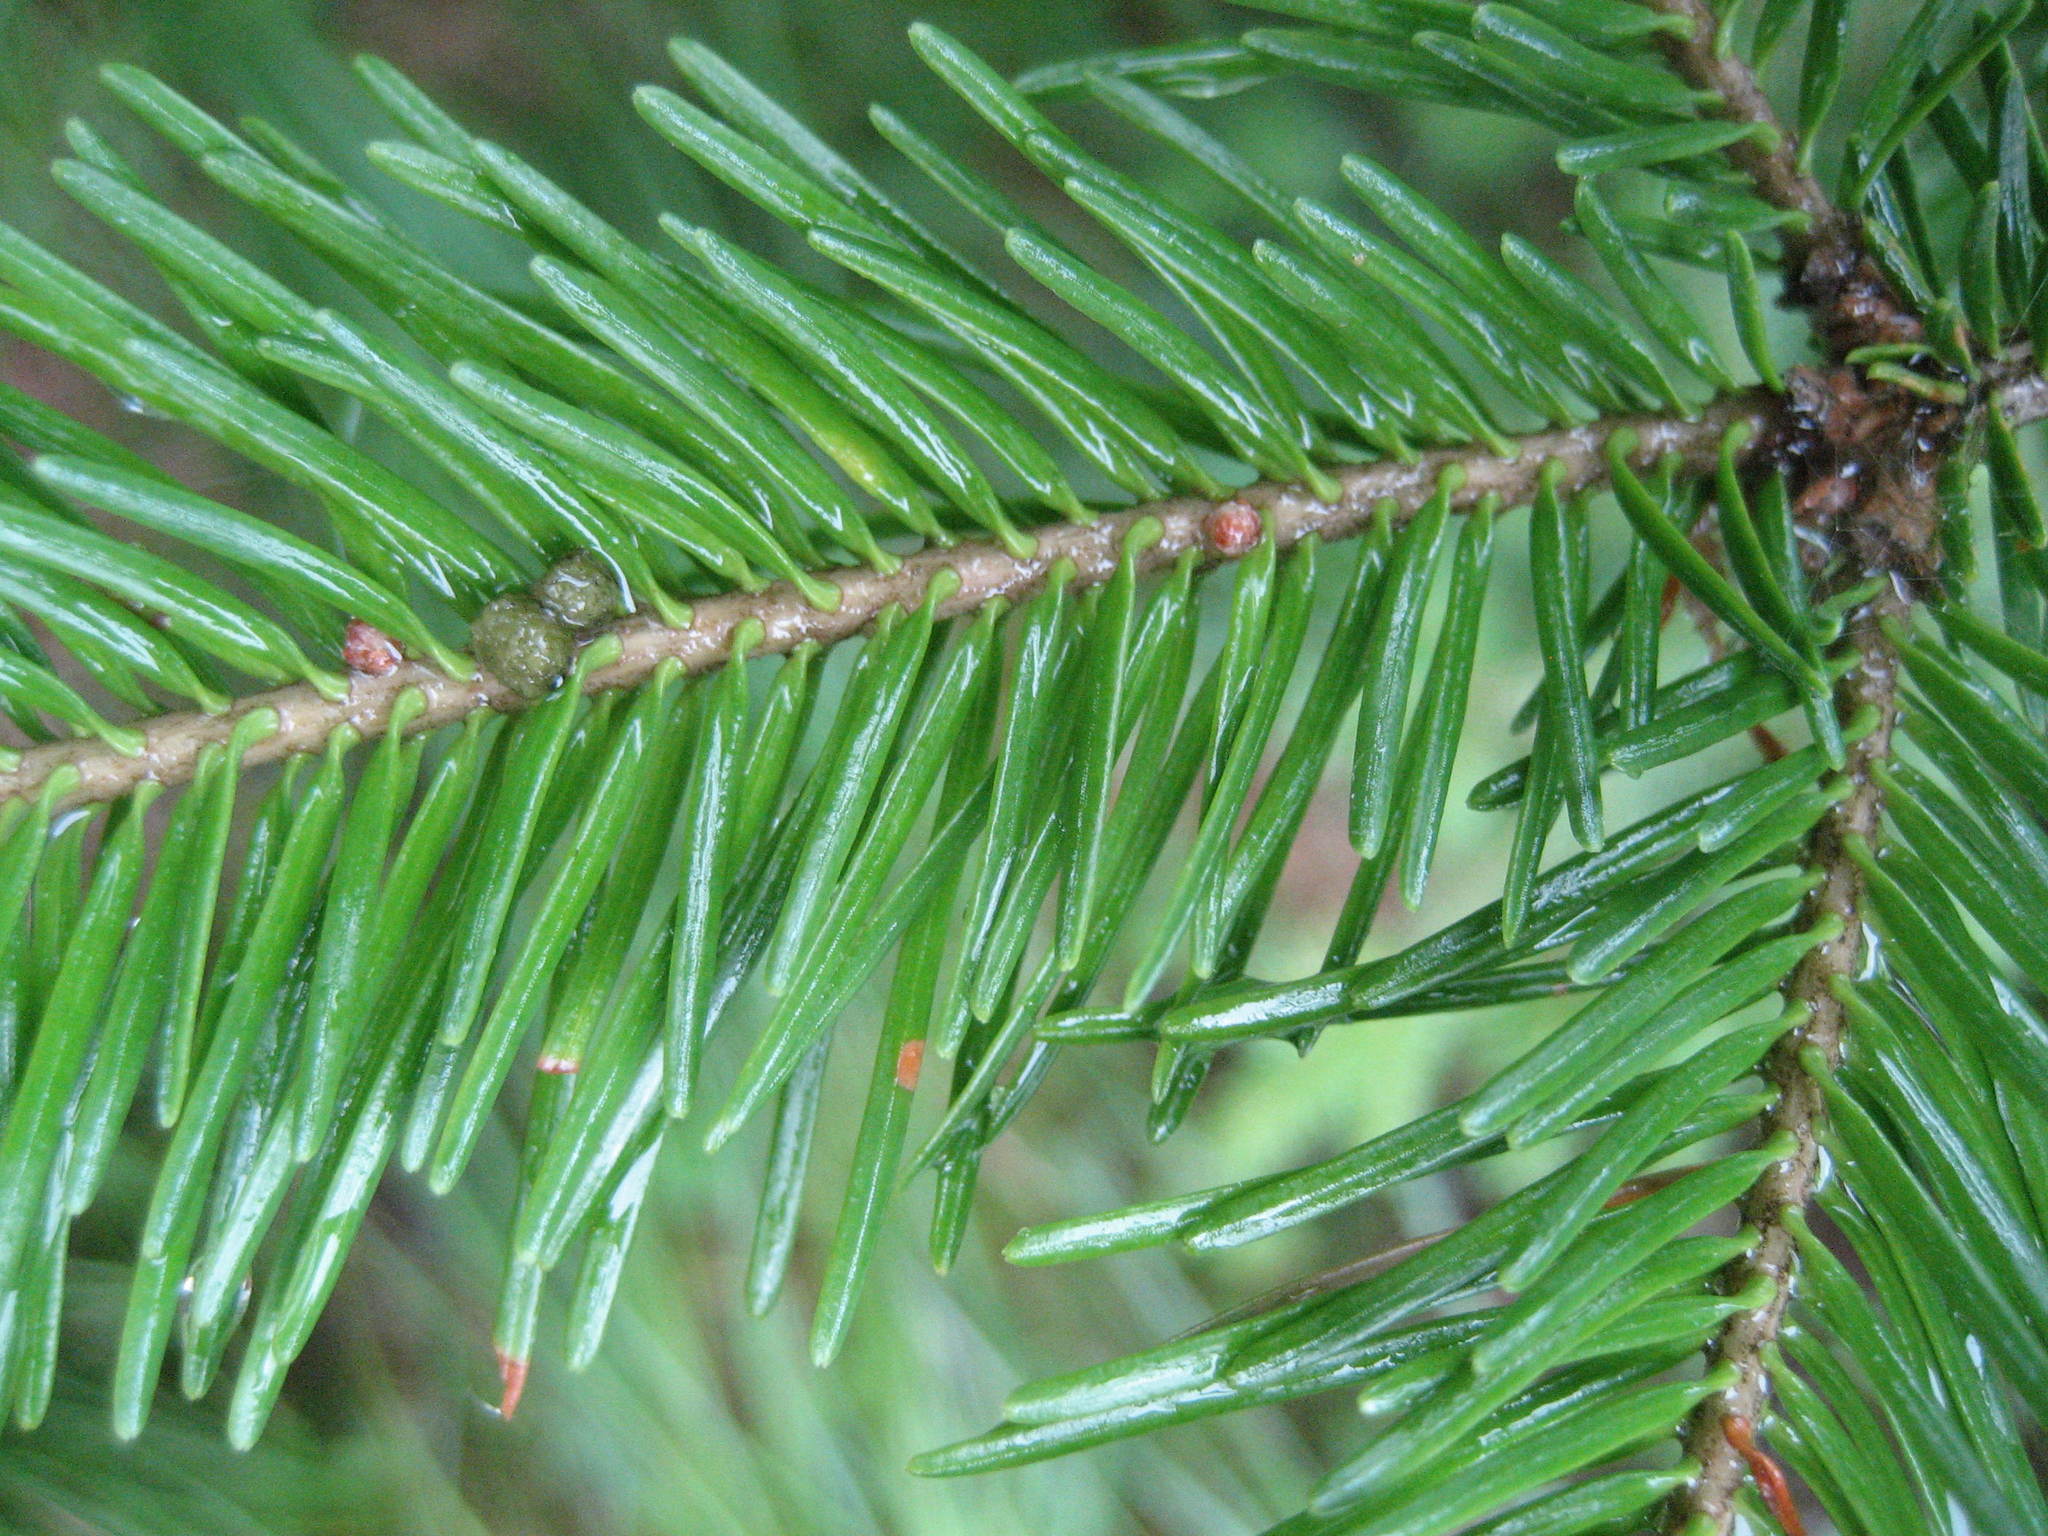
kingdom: Plantae
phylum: Tracheophyta
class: Pinopsida
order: Pinales
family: Pinaceae
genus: Abies
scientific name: Abies balsamea
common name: Balsam fir
